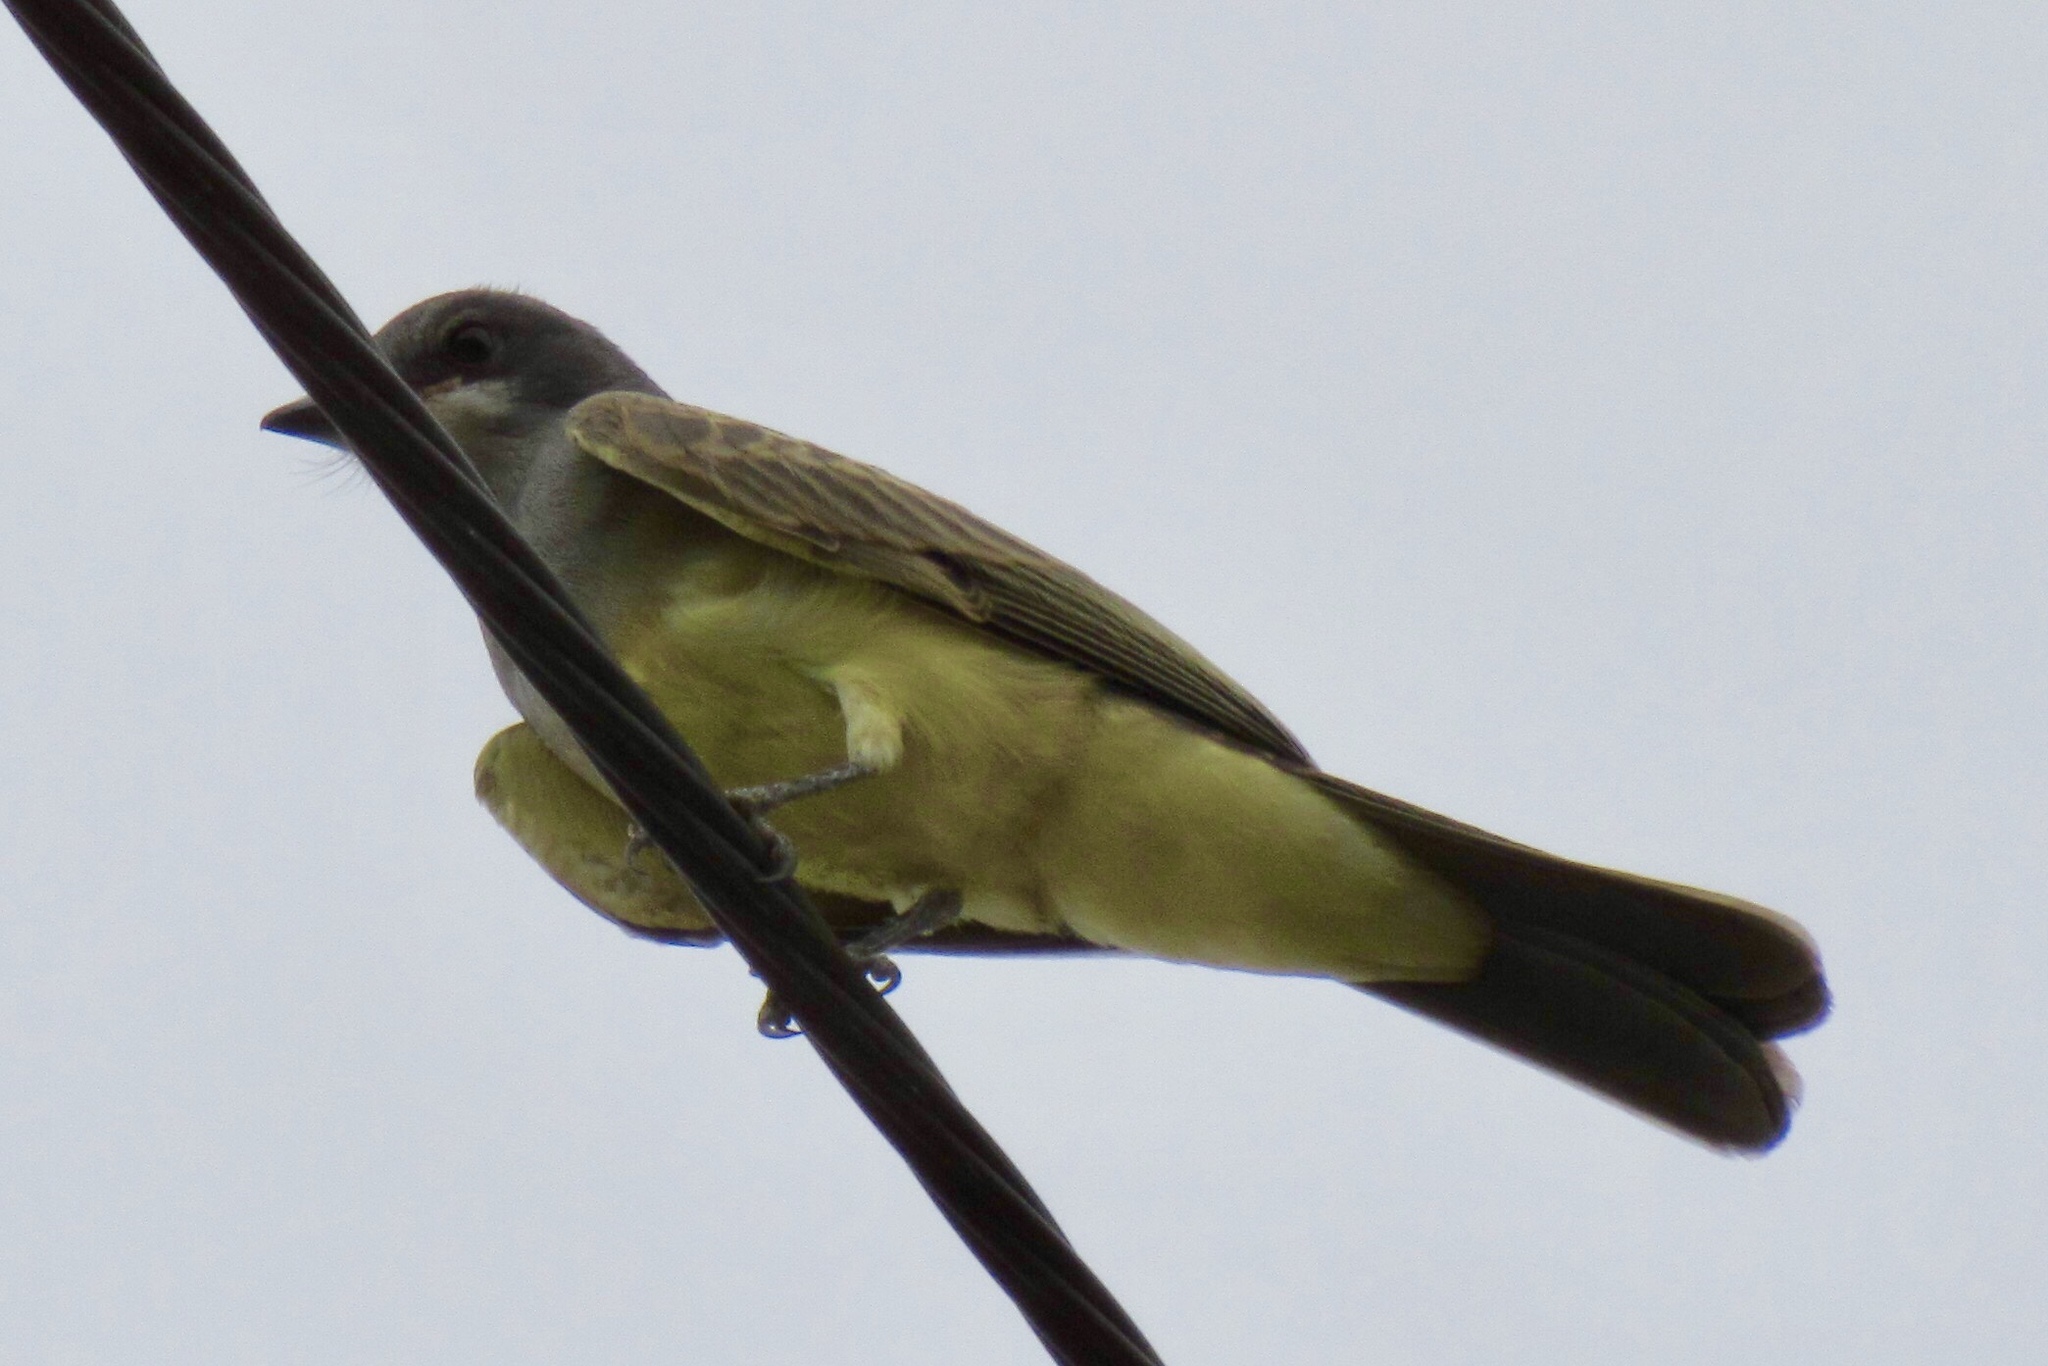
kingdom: Animalia
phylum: Chordata
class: Aves
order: Passeriformes
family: Tyrannidae
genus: Tyrannus
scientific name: Tyrannus vociferans
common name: Cassin's kingbird
